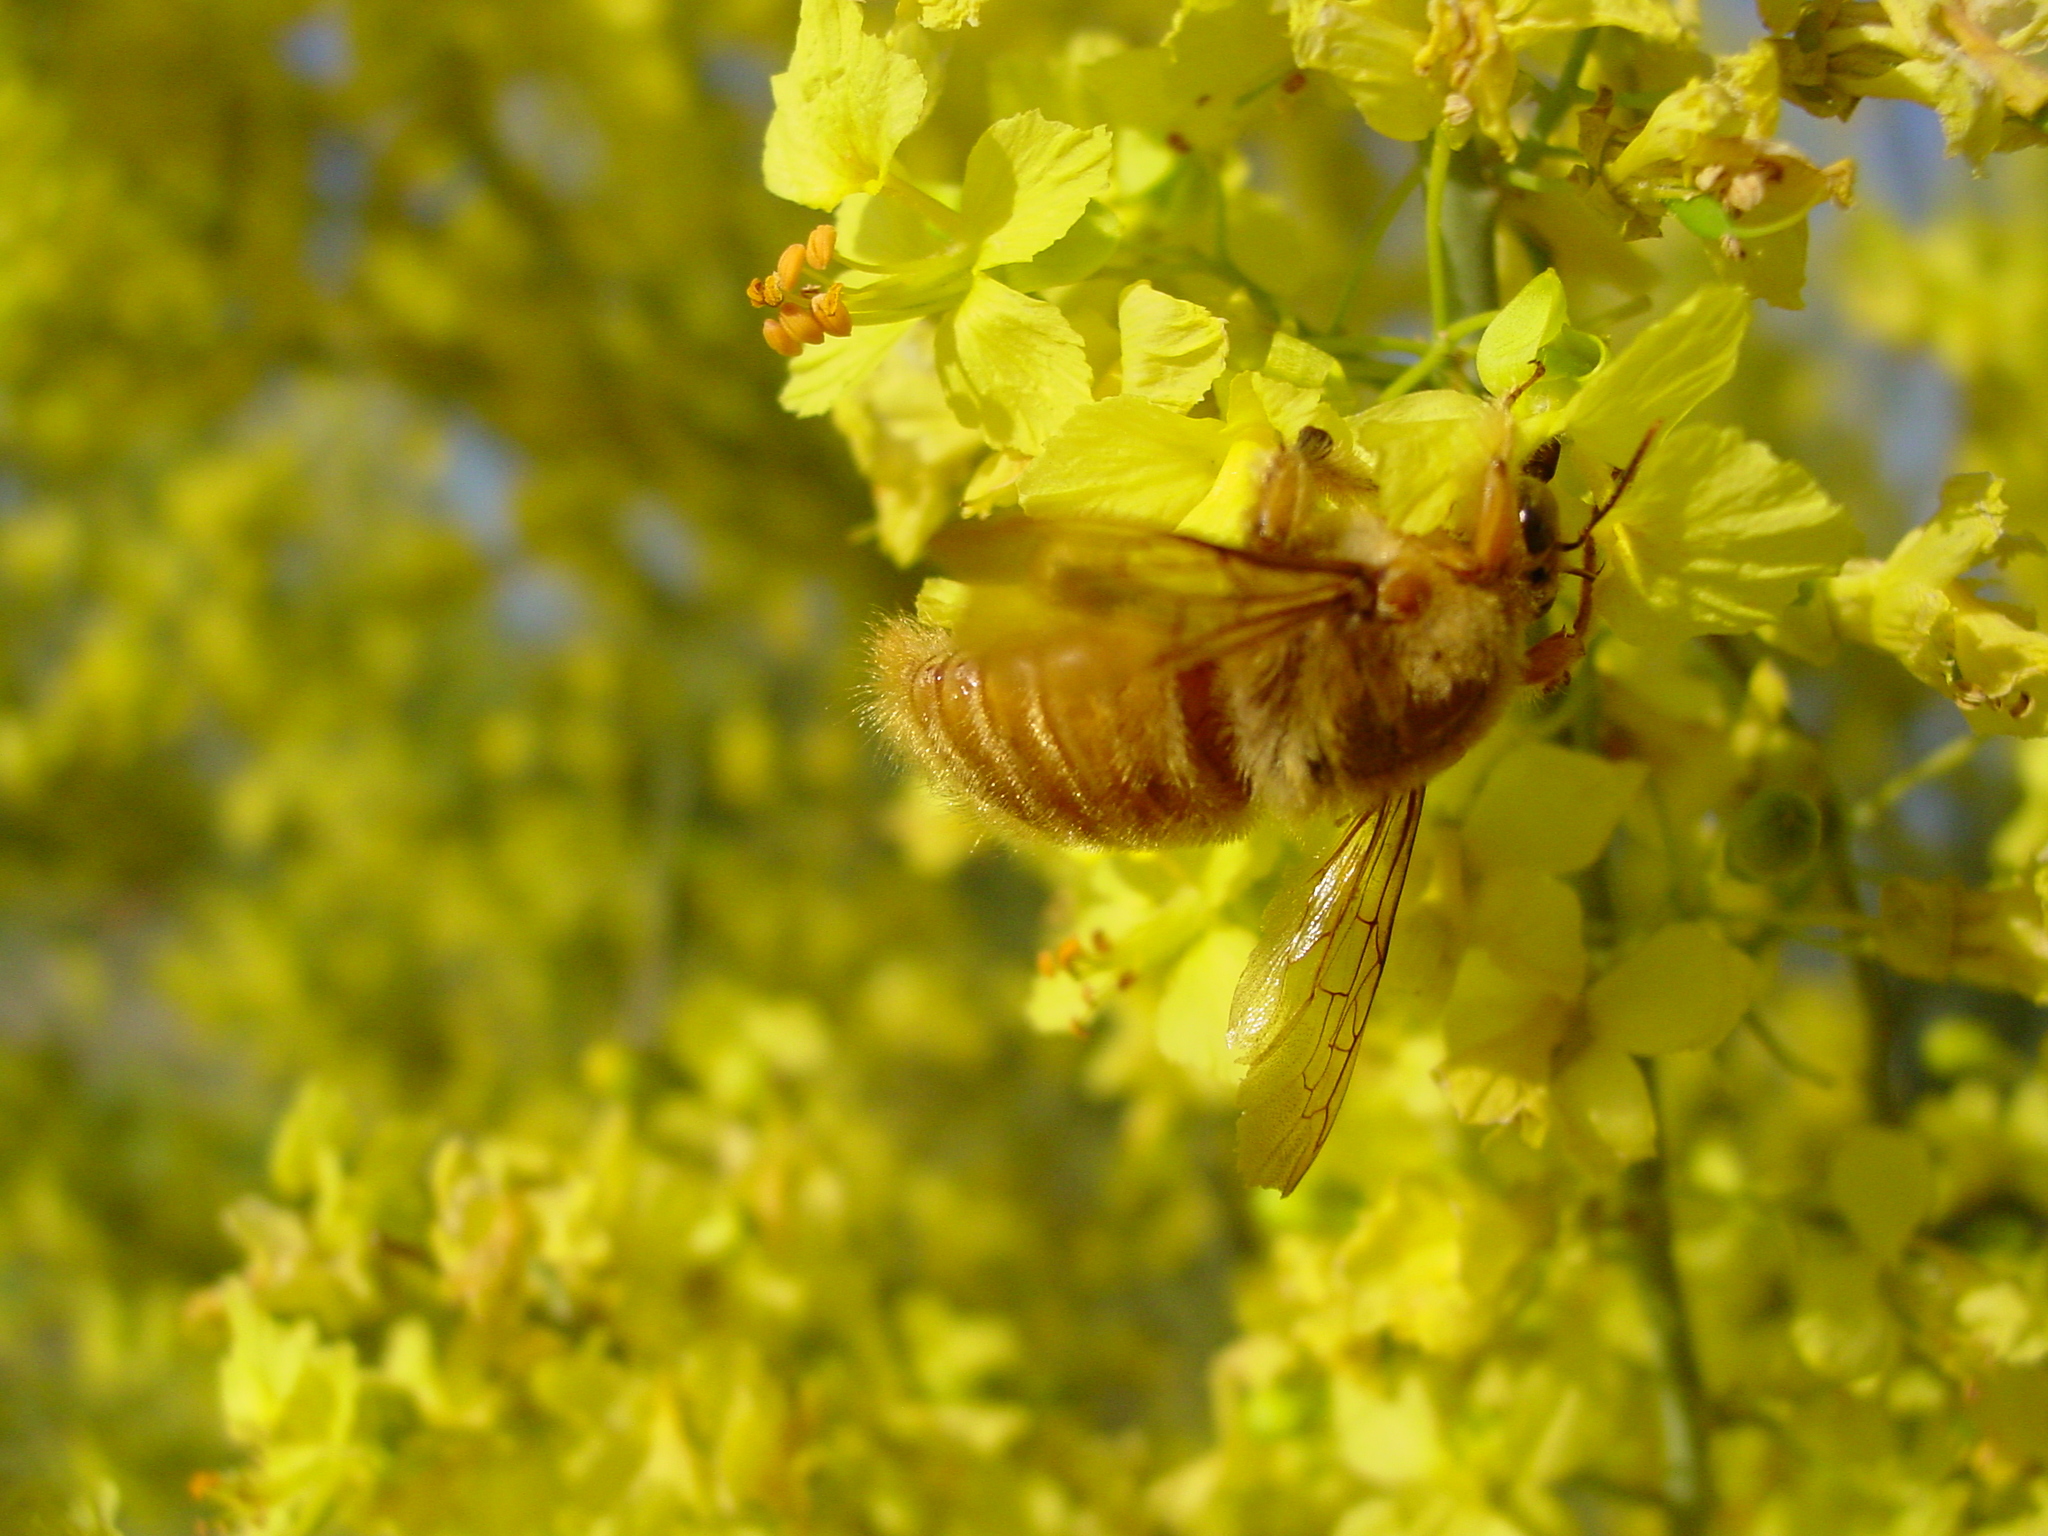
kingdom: Animalia
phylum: Arthropoda
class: Insecta
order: Hymenoptera
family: Apidae
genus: Xylocopa
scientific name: Xylocopa sonorina
